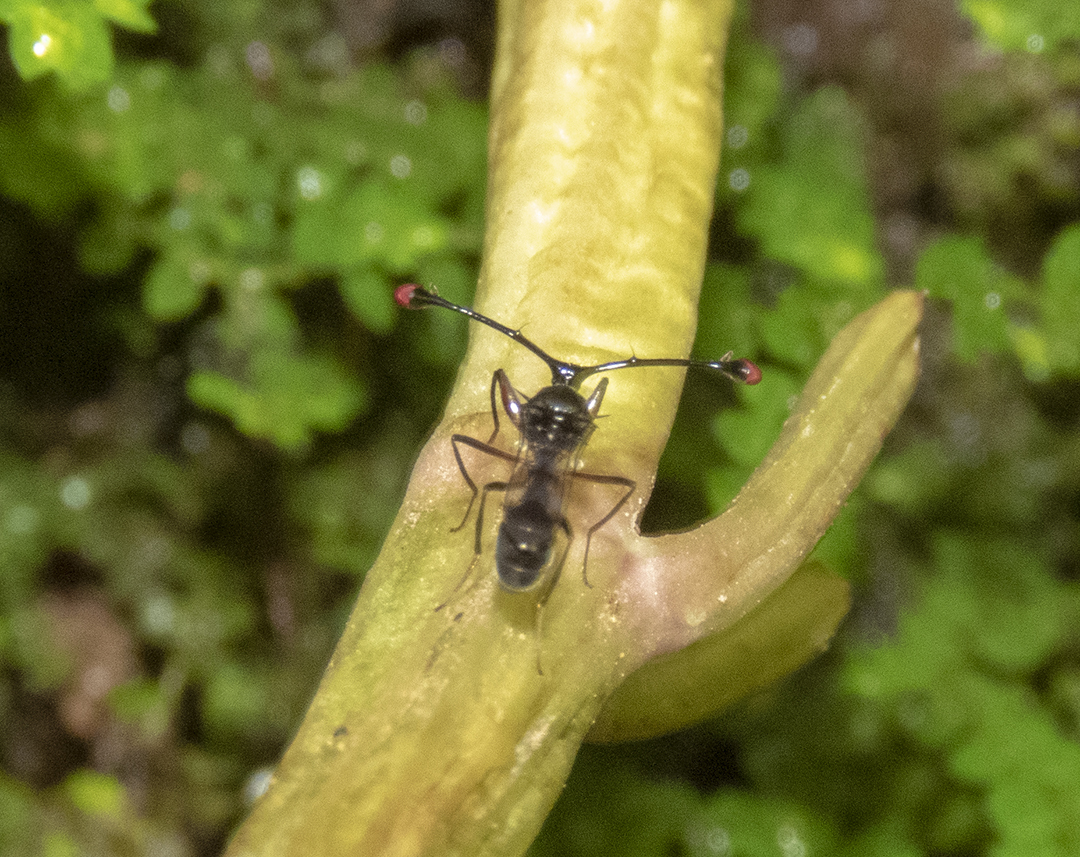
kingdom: Animalia
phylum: Arthropoda
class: Insecta
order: Diptera
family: Diopsidae
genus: Teleopsis
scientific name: Teleopsis trichophoras
